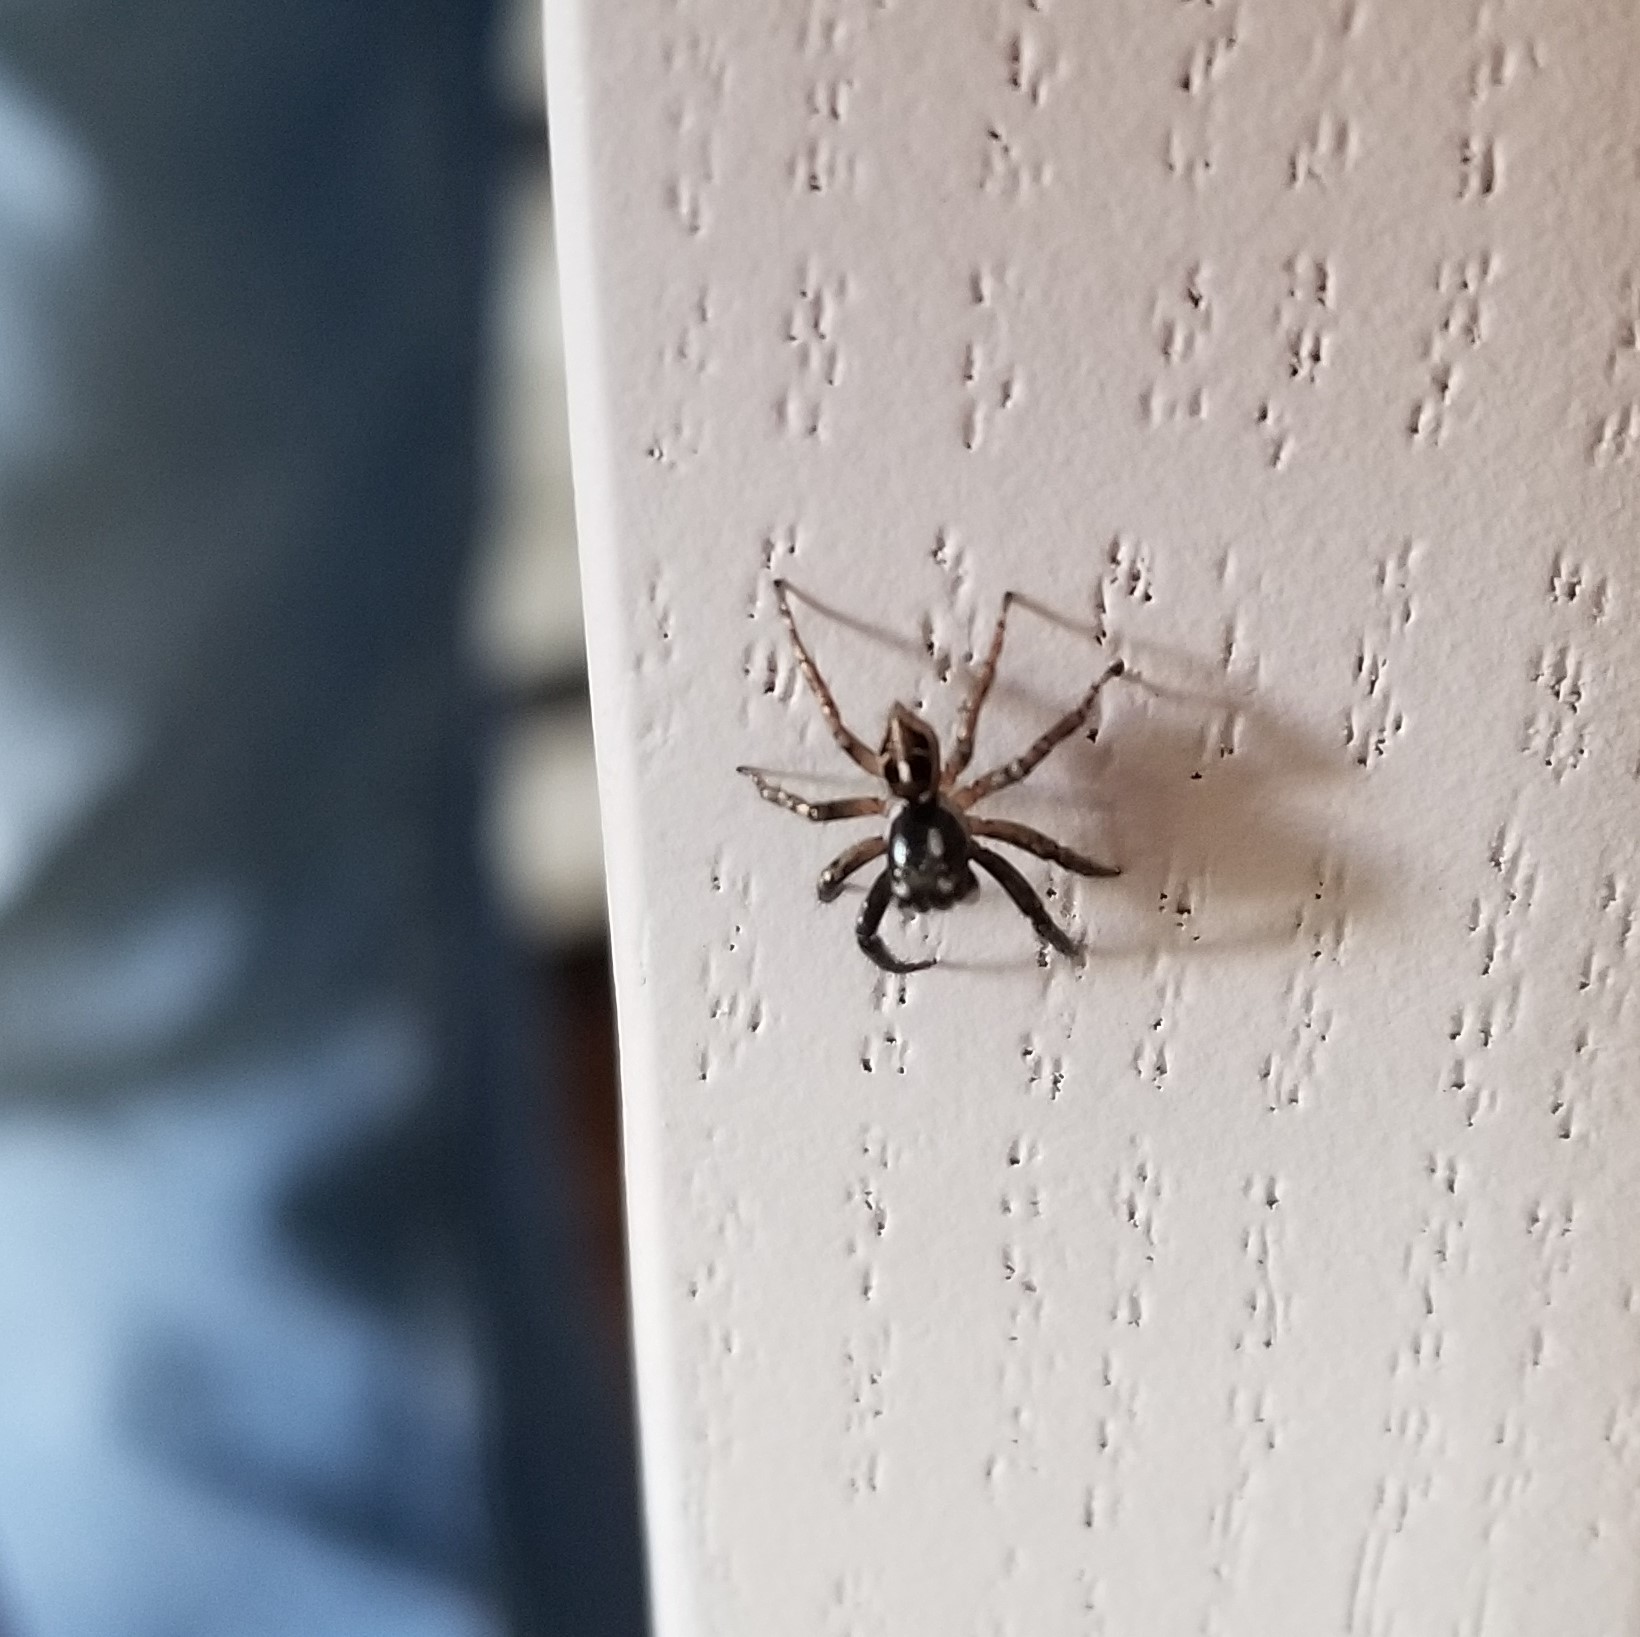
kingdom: Animalia
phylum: Arthropoda
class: Arachnida
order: Araneae
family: Salticidae
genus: Anasaitis
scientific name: Anasaitis canosa
